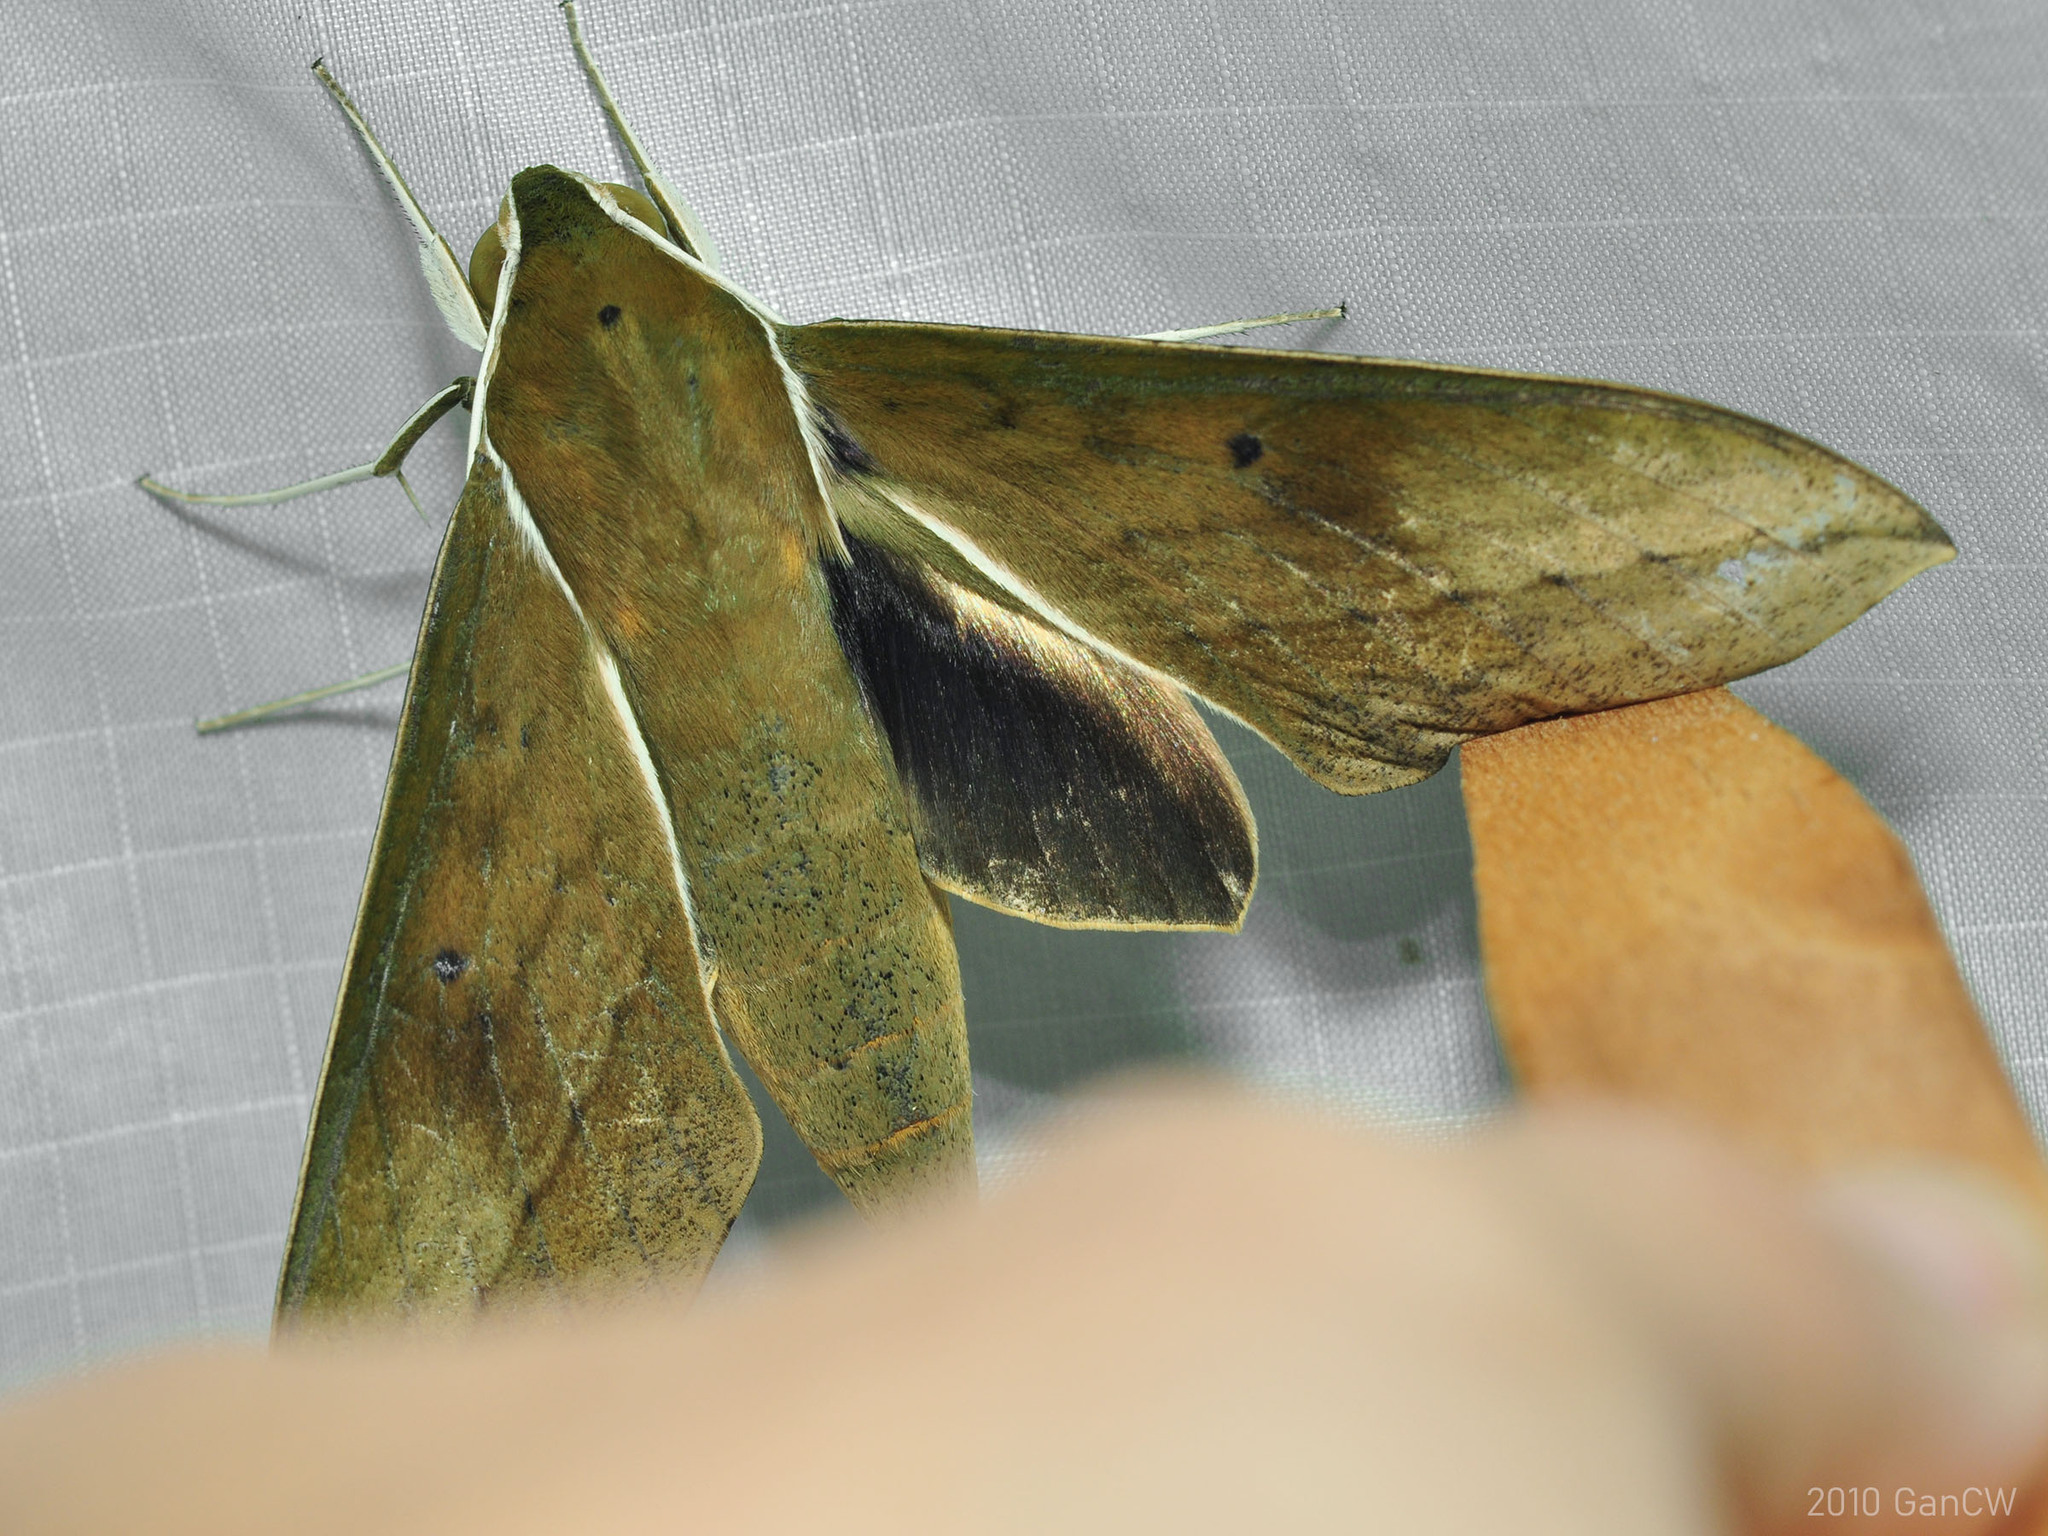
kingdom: Animalia
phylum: Arthropoda
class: Insecta
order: Lepidoptera
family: Sphingidae
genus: Theretra
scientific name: Theretra boisduvalii
